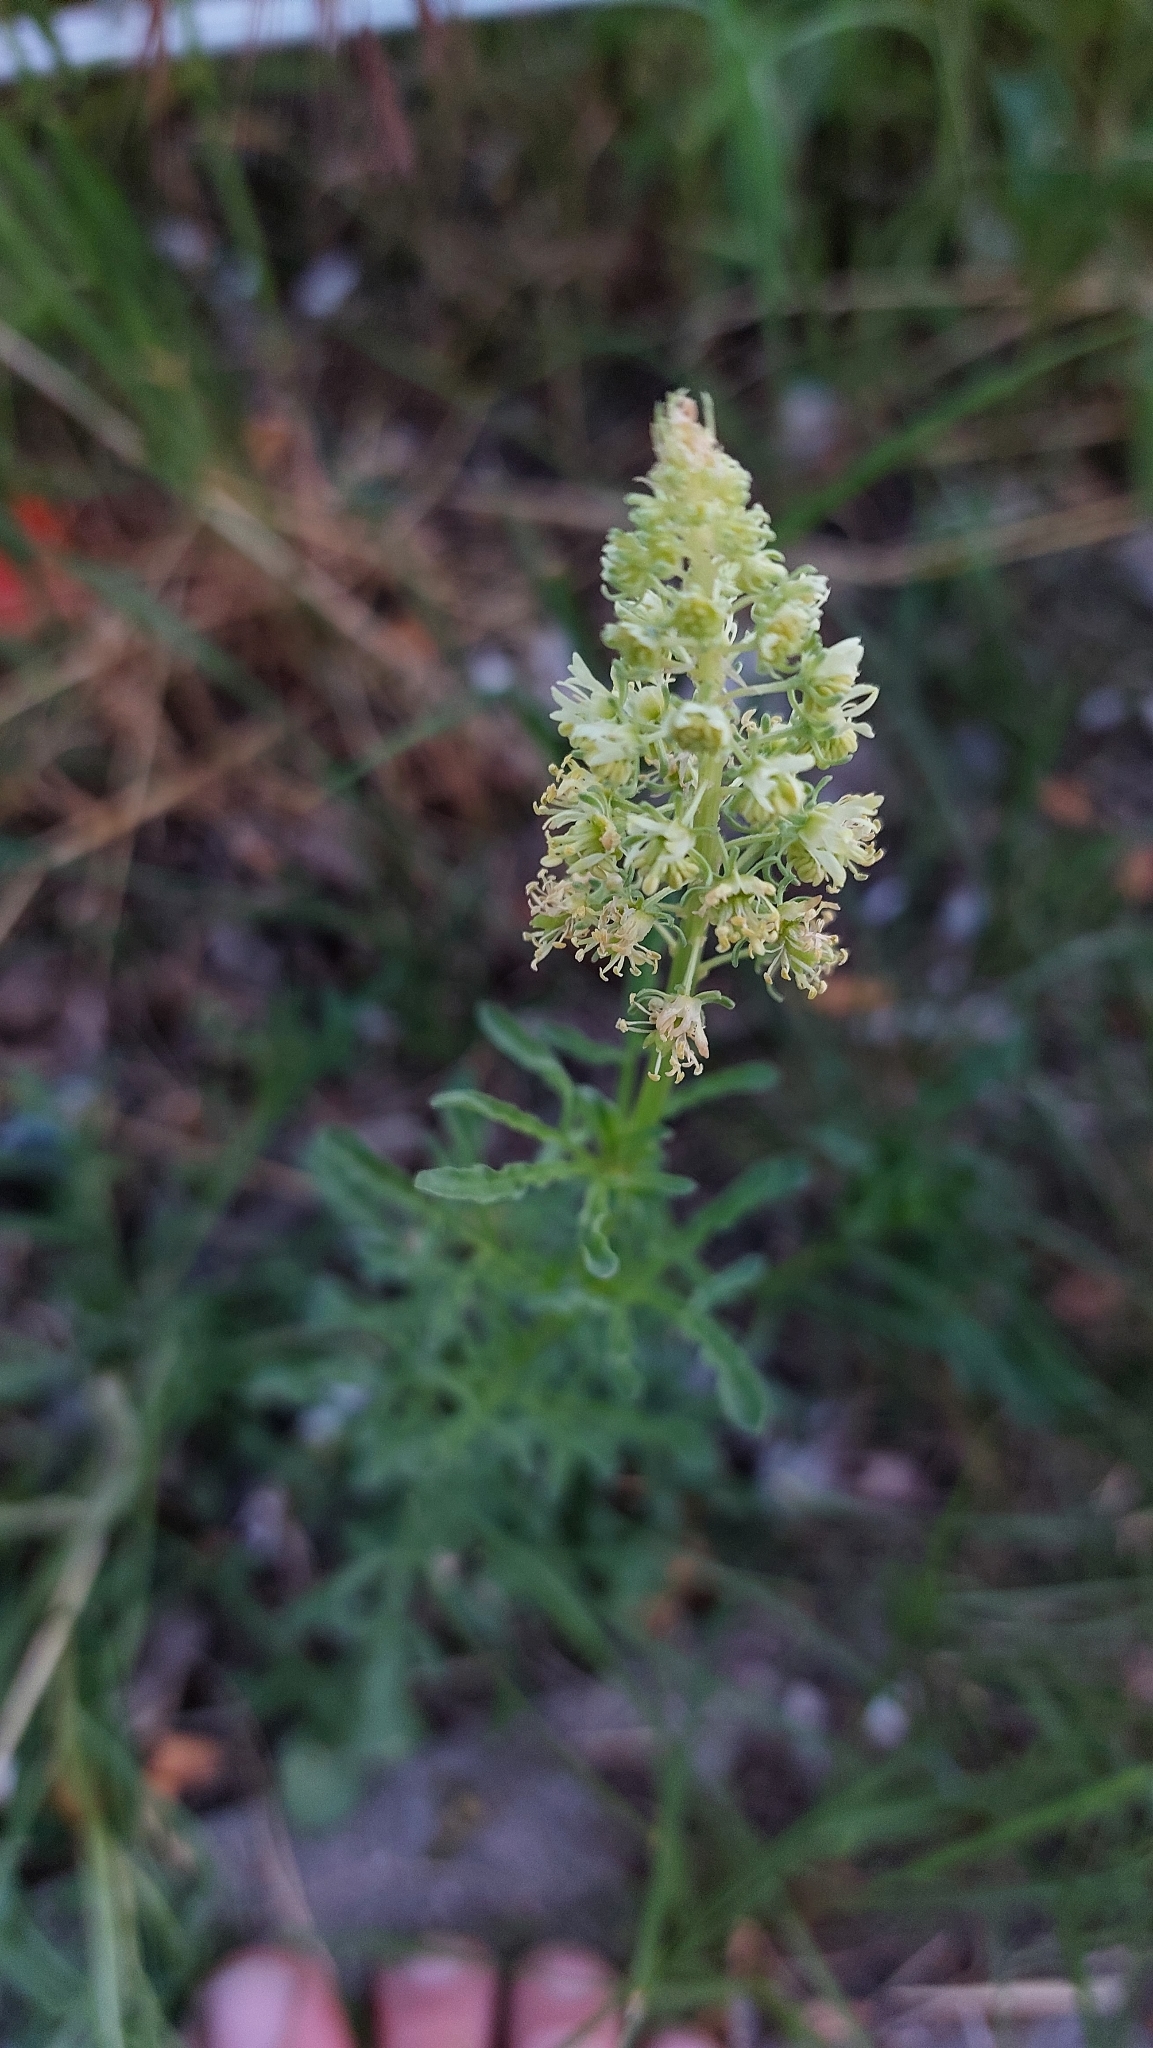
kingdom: Plantae
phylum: Tracheophyta
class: Magnoliopsida
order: Brassicales
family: Resedaceae
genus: Reseda
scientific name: Reseda lutea
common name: Wild mignonette
